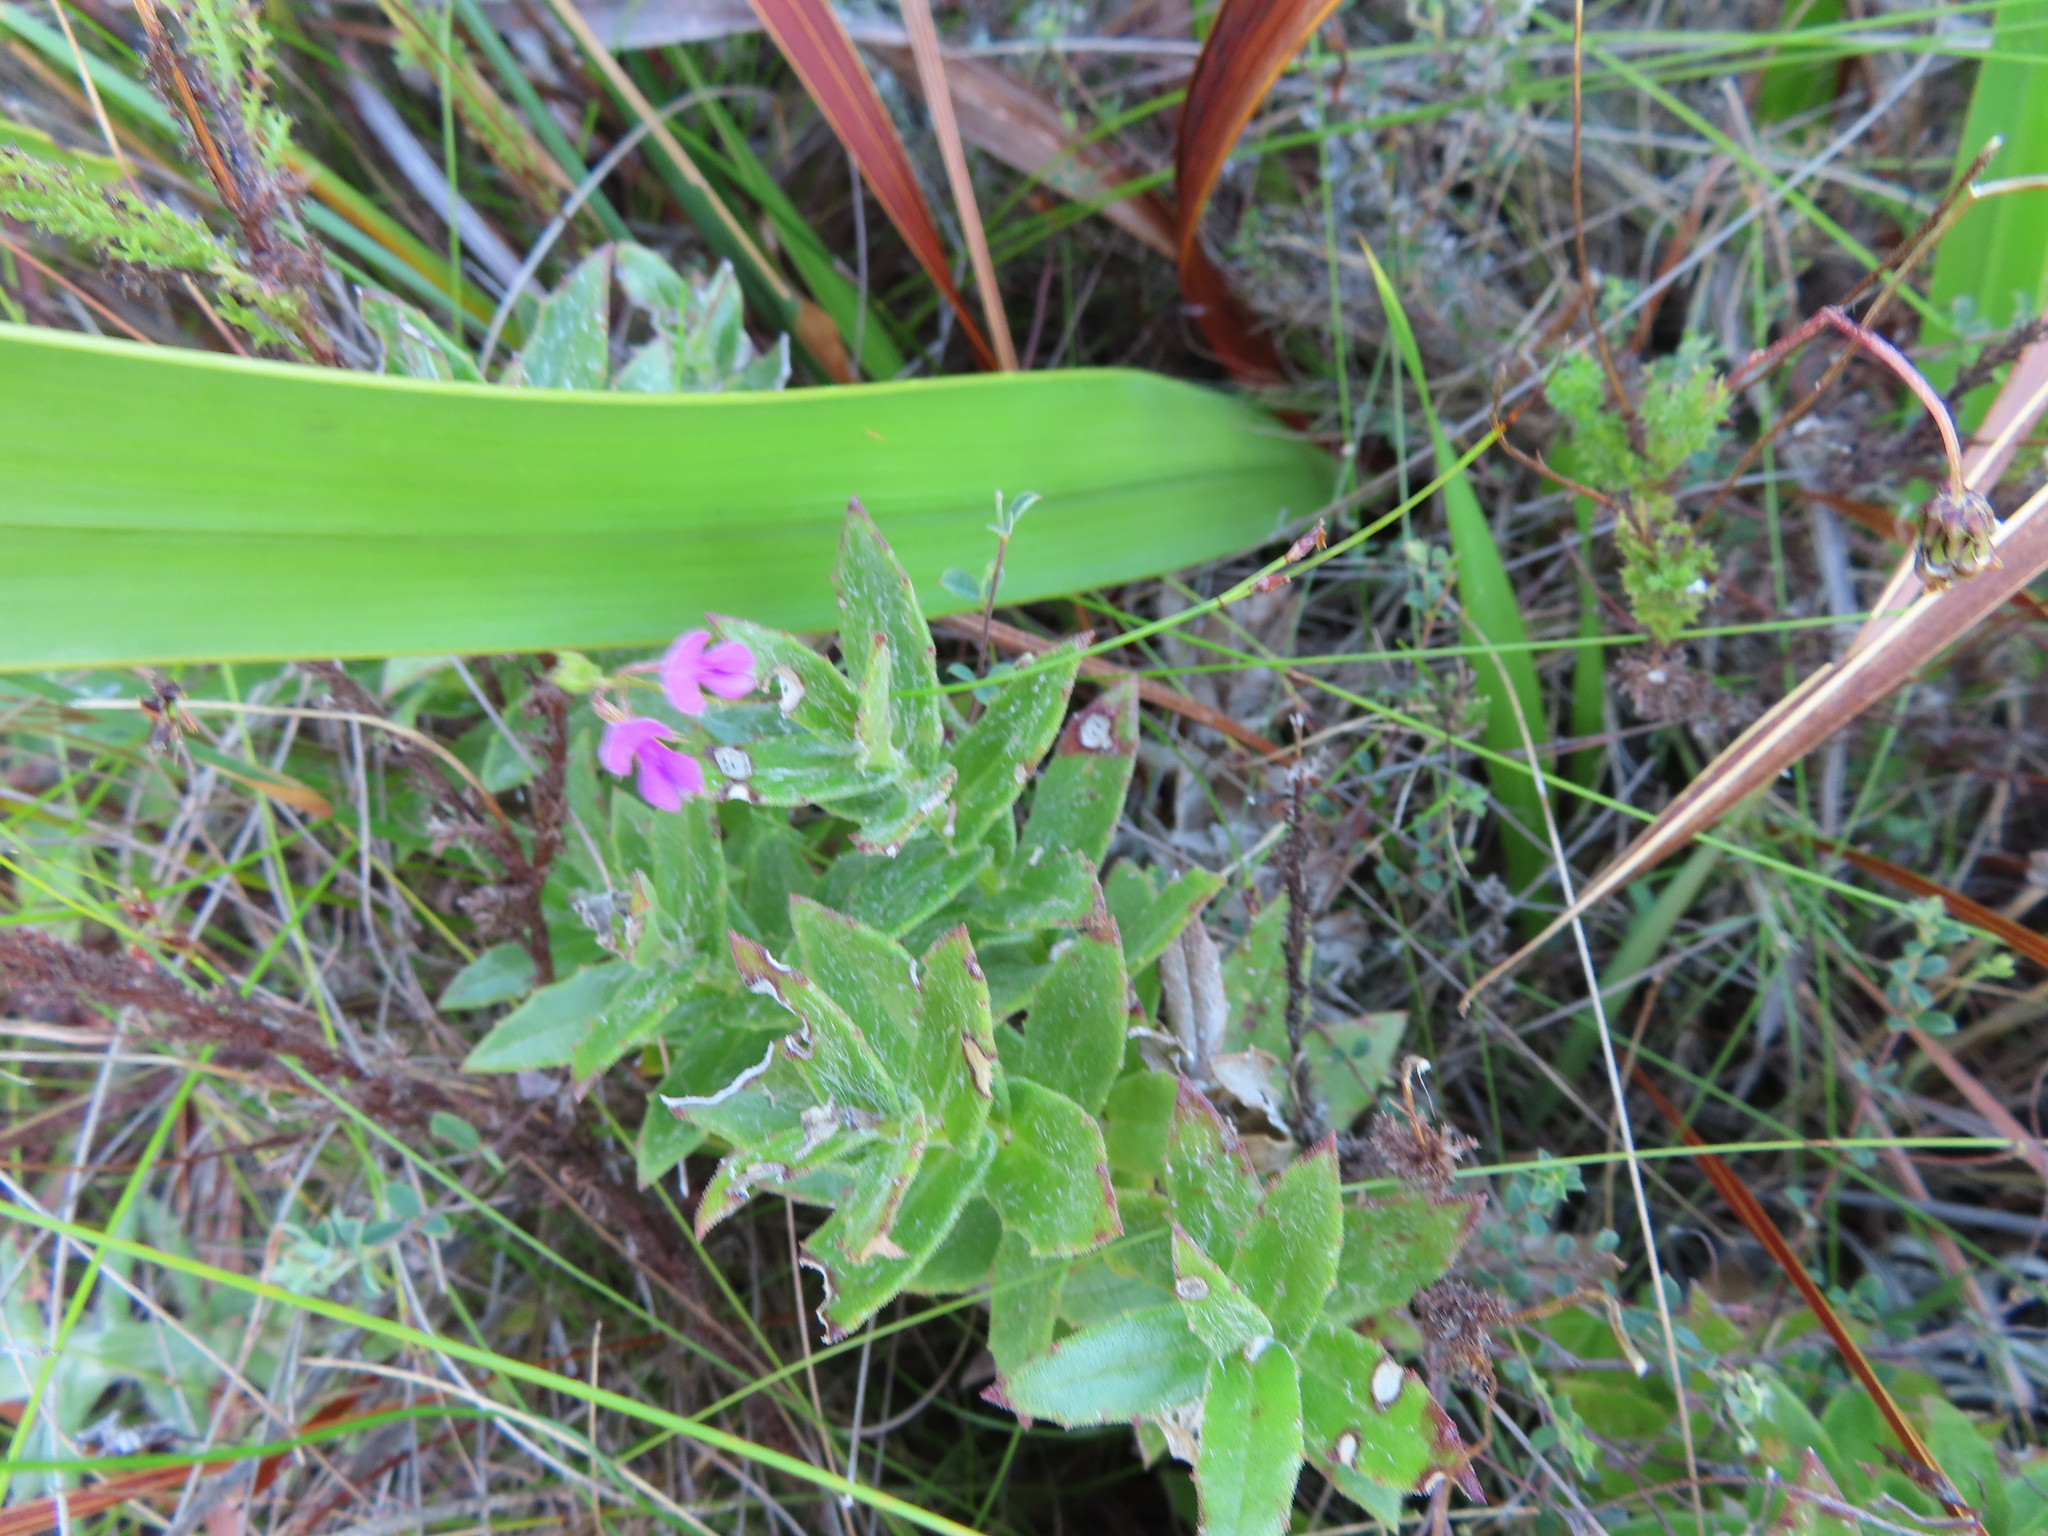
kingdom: Plantae
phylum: Tracheophyta
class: Magnoliopsida
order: Fabales
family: Fabaceae
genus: Indigofera
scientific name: Indigofera sarmentosa
